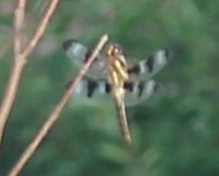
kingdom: Animalia
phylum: Arthropoda
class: Insecta
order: Odonata
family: Libellulidae
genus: Libellula
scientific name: Libellula pulchella
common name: Twelve-spotted skimmer
